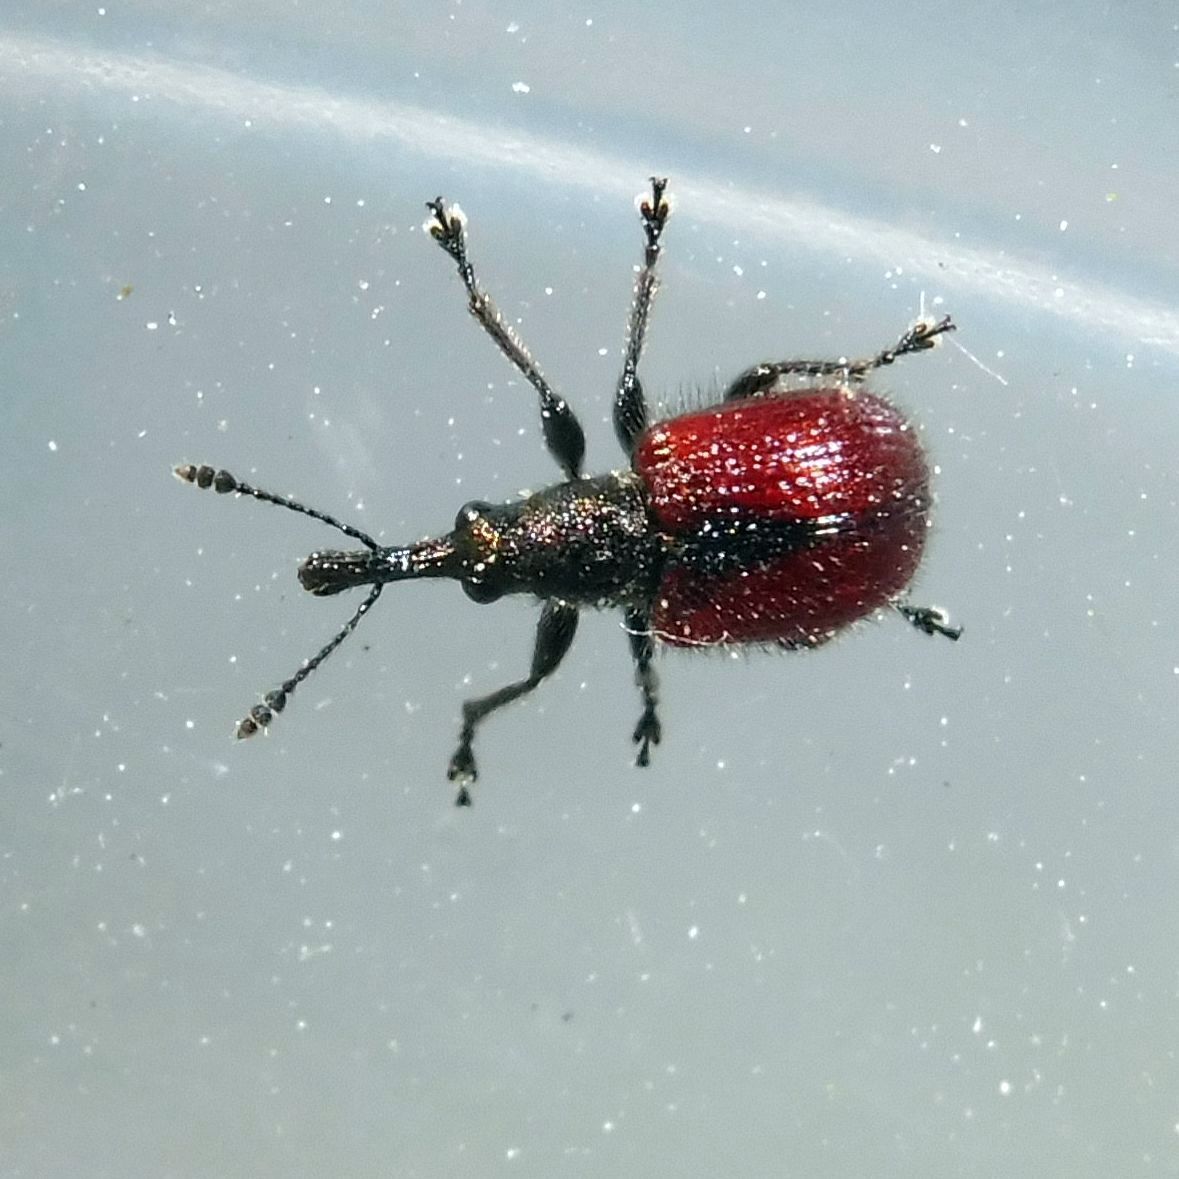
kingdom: Animalia
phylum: Arthropoda
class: Insecta
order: Coleoptera
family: Rhynchitidae
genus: Tatianaerhynchites
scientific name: Tatianaerhynchites aequatus
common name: Apple fruit rhynchites
